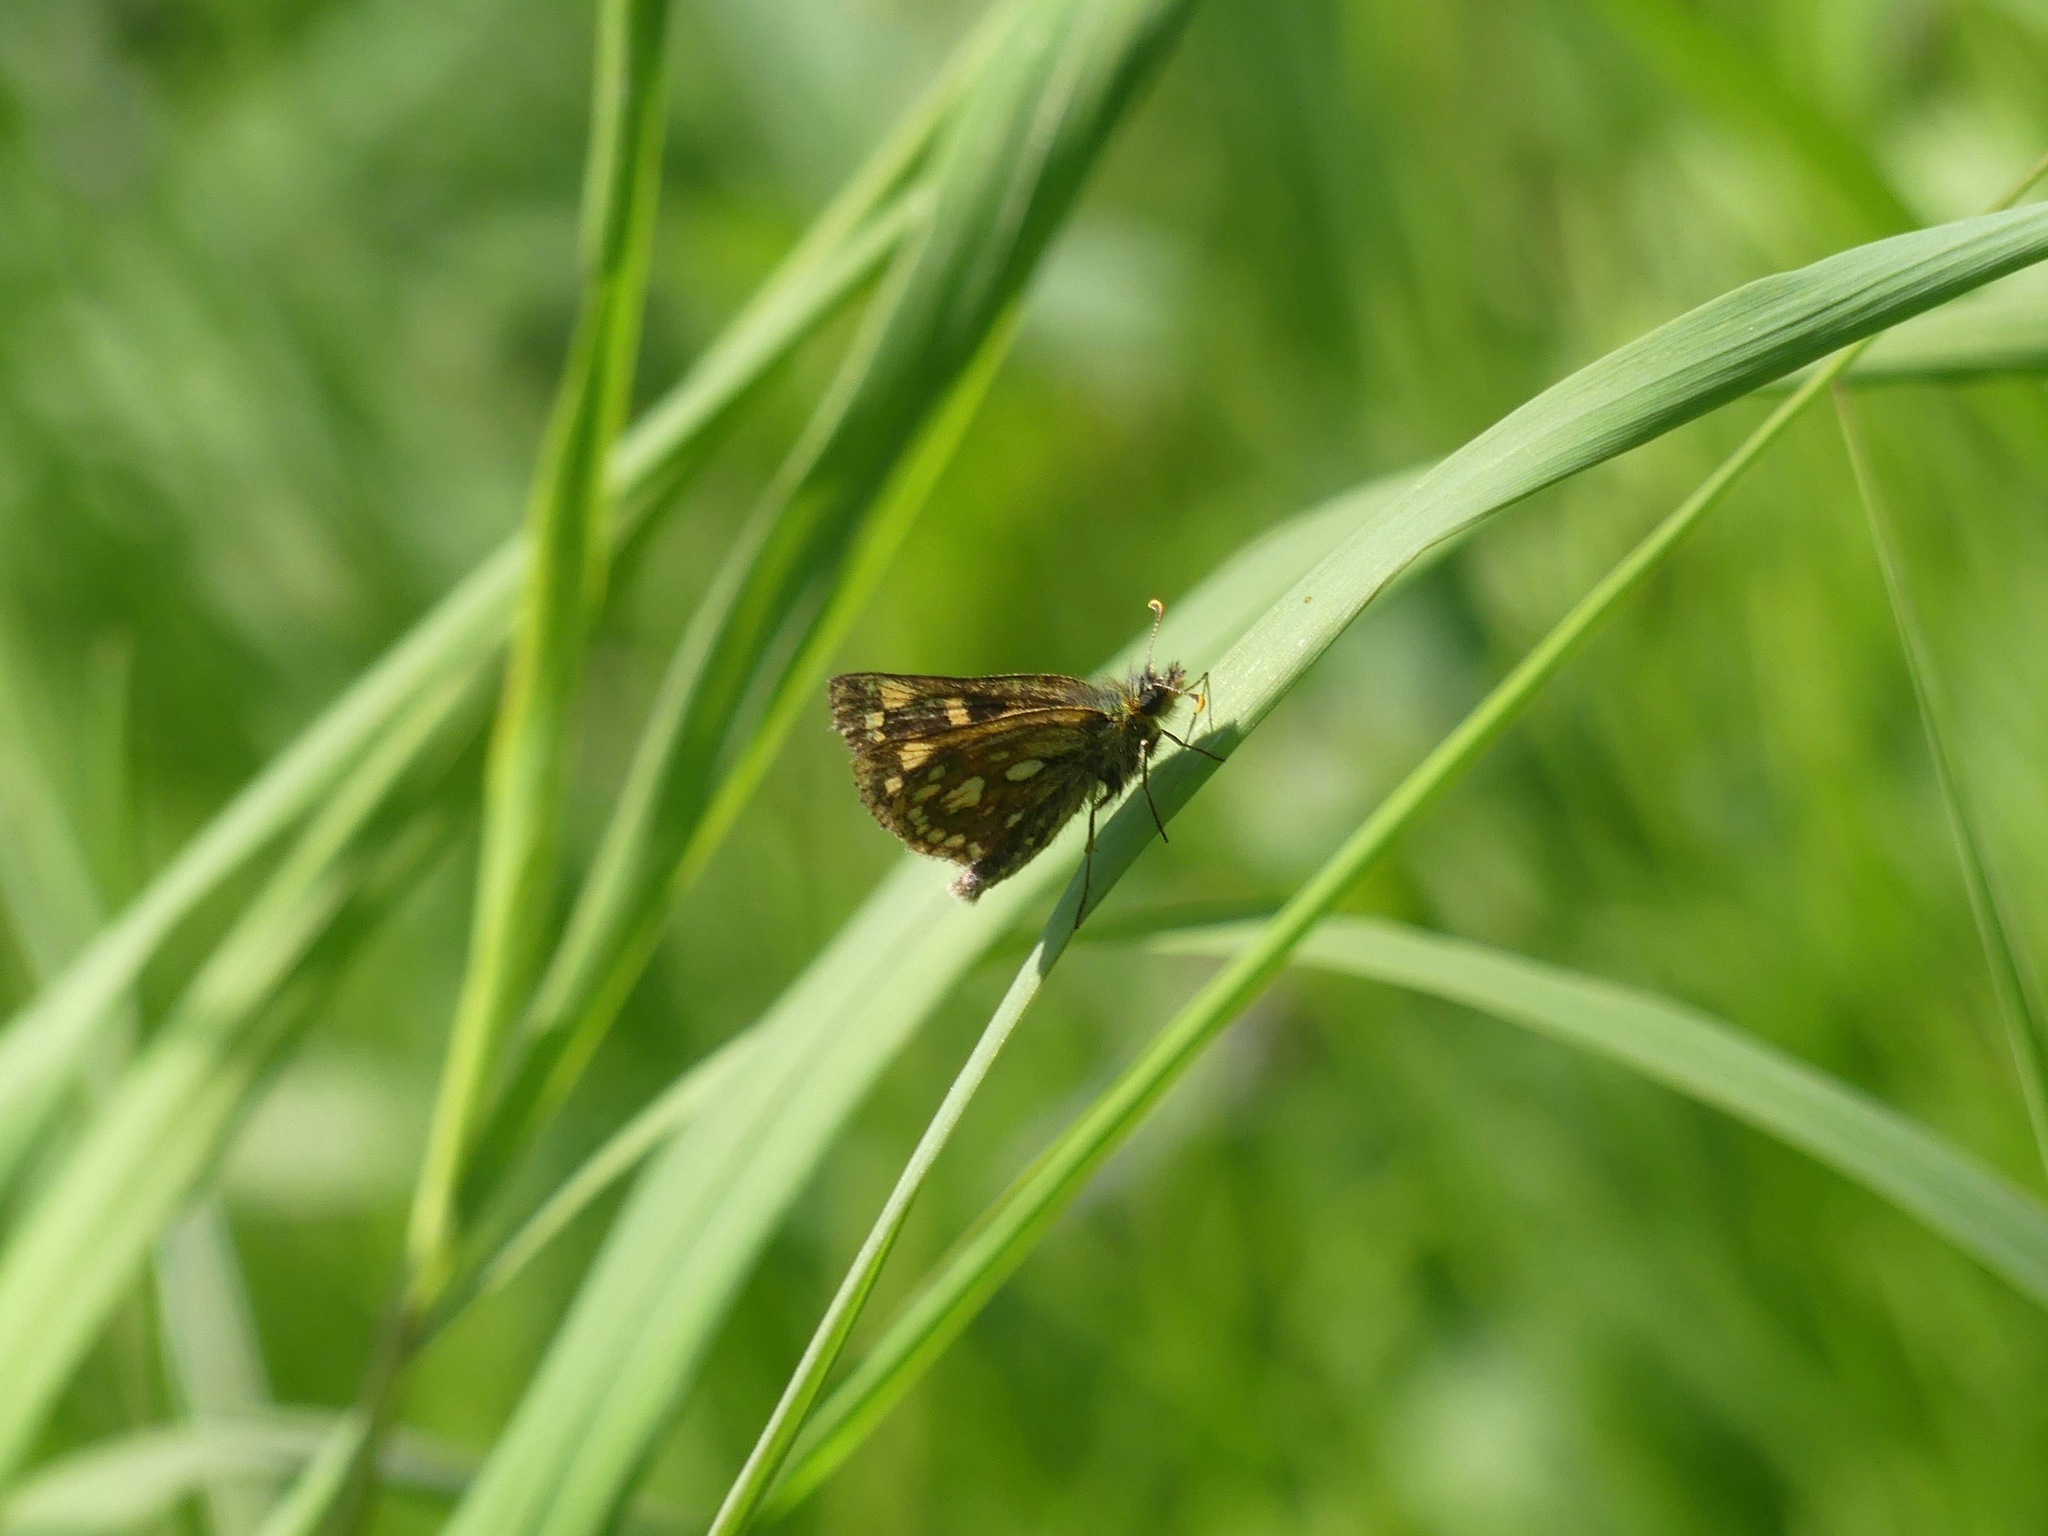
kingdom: Animalia
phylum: Arthropoda
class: Insecta
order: Lepidoptera
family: Hesperiidae
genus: Carterocephalus
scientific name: Carterocephalus skada
